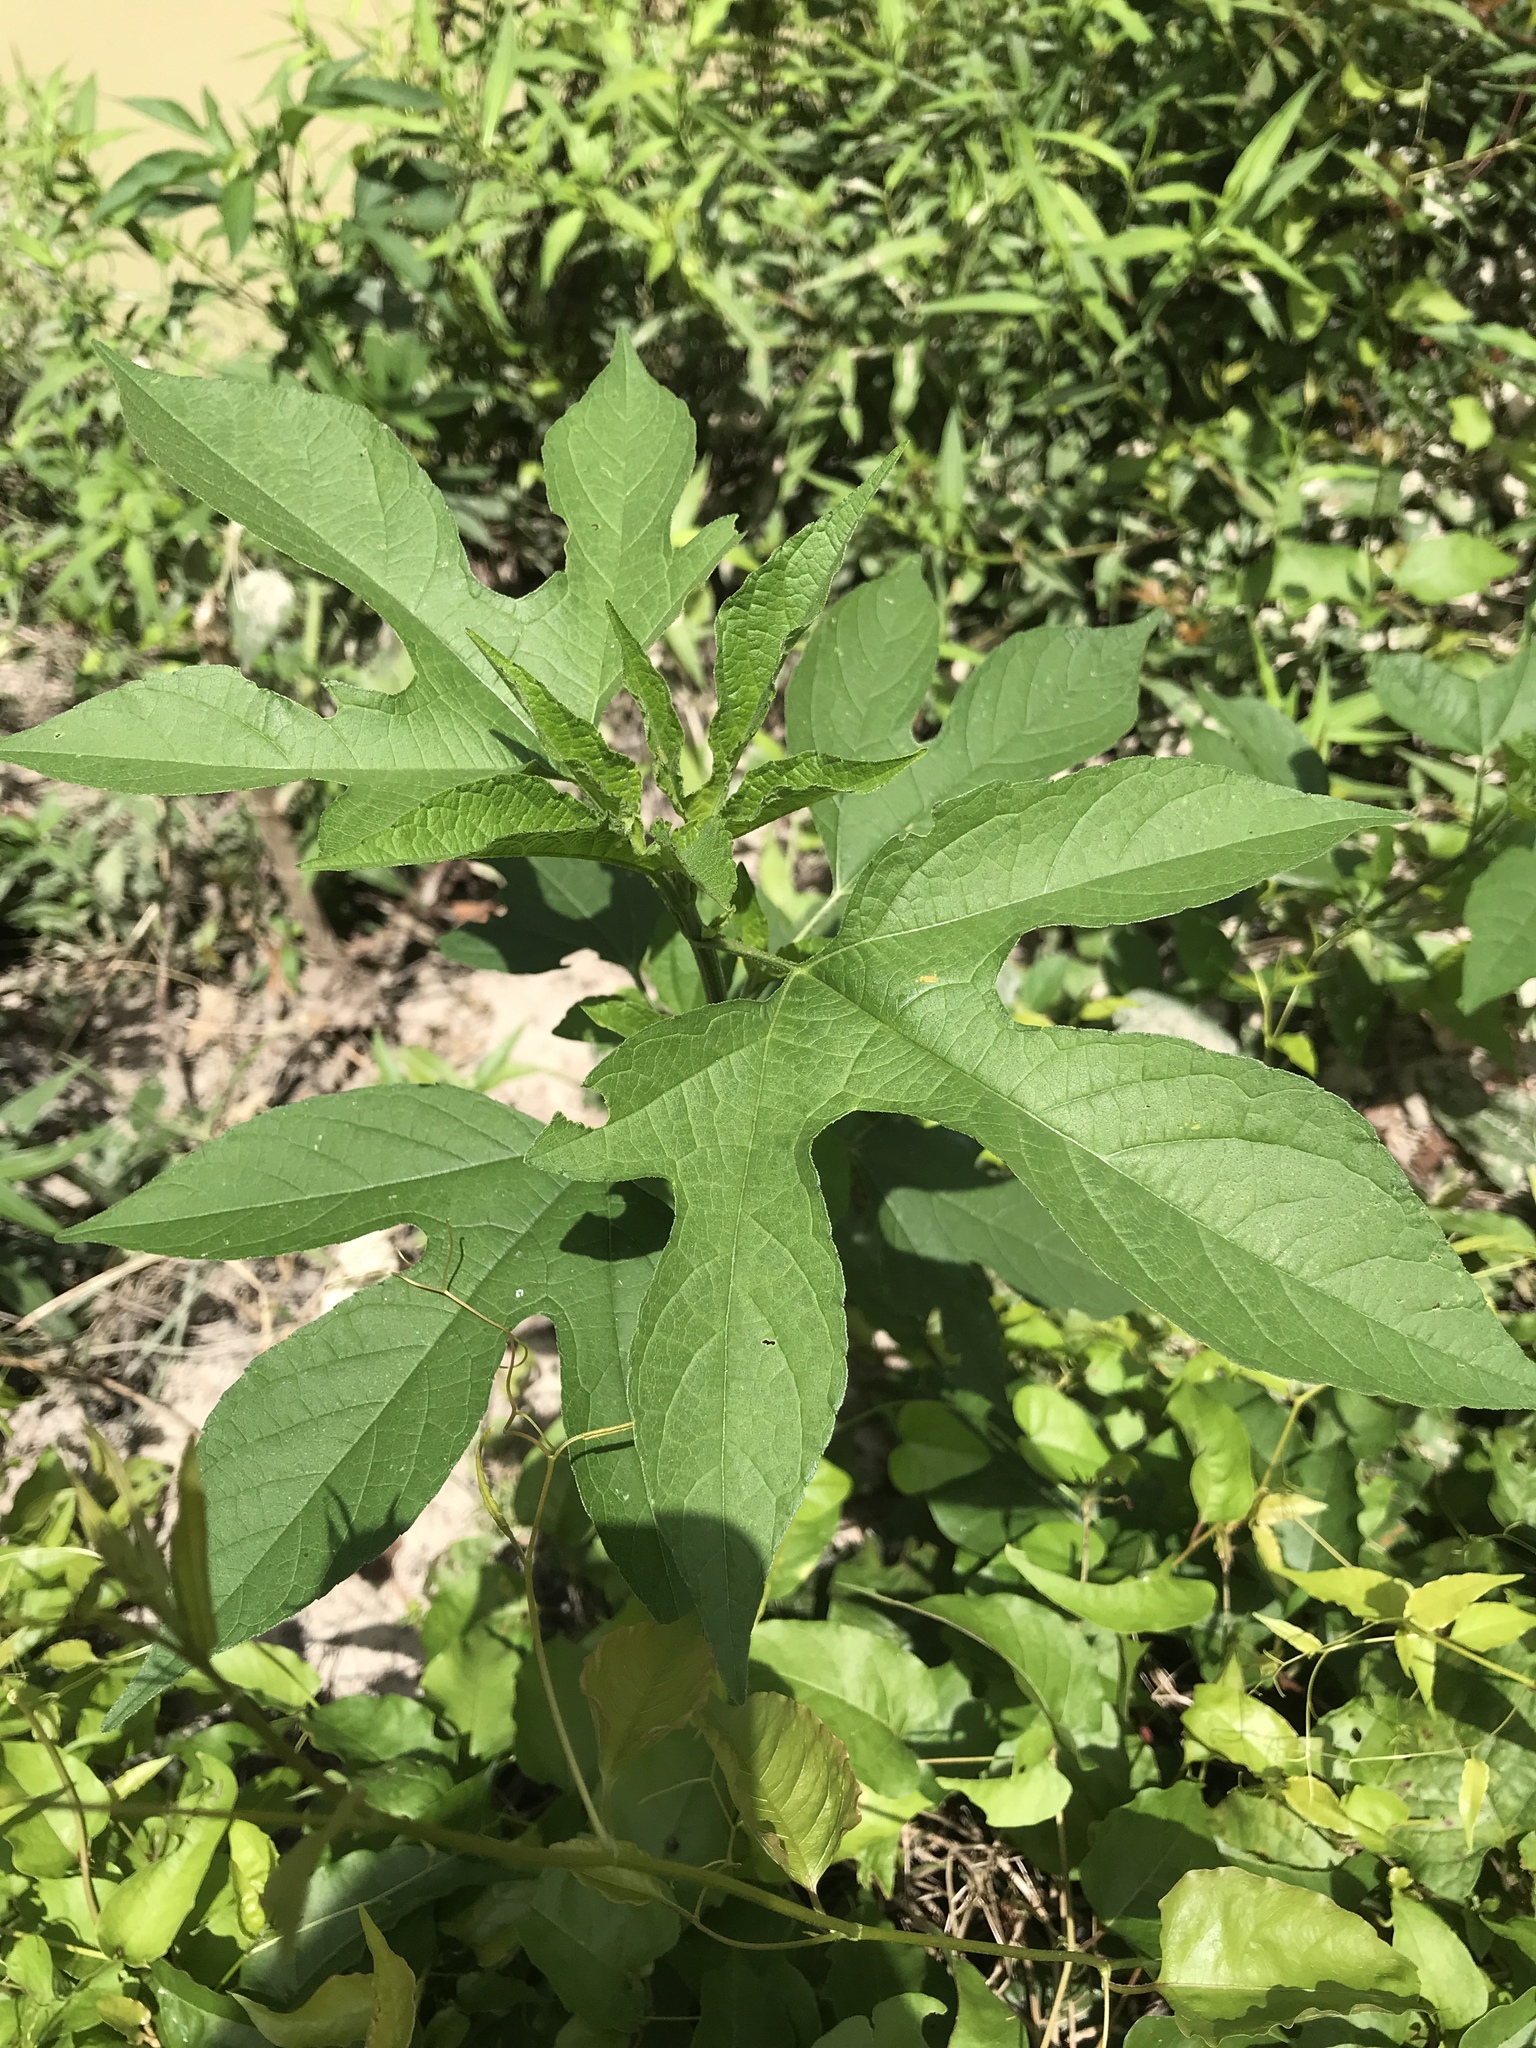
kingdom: Plantae
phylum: Tracheophyta
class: Magnoliopsida
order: Asterales
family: Asteraceae
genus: Ambrosia
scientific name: Ambrosia trifida
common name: Giant ragweed
